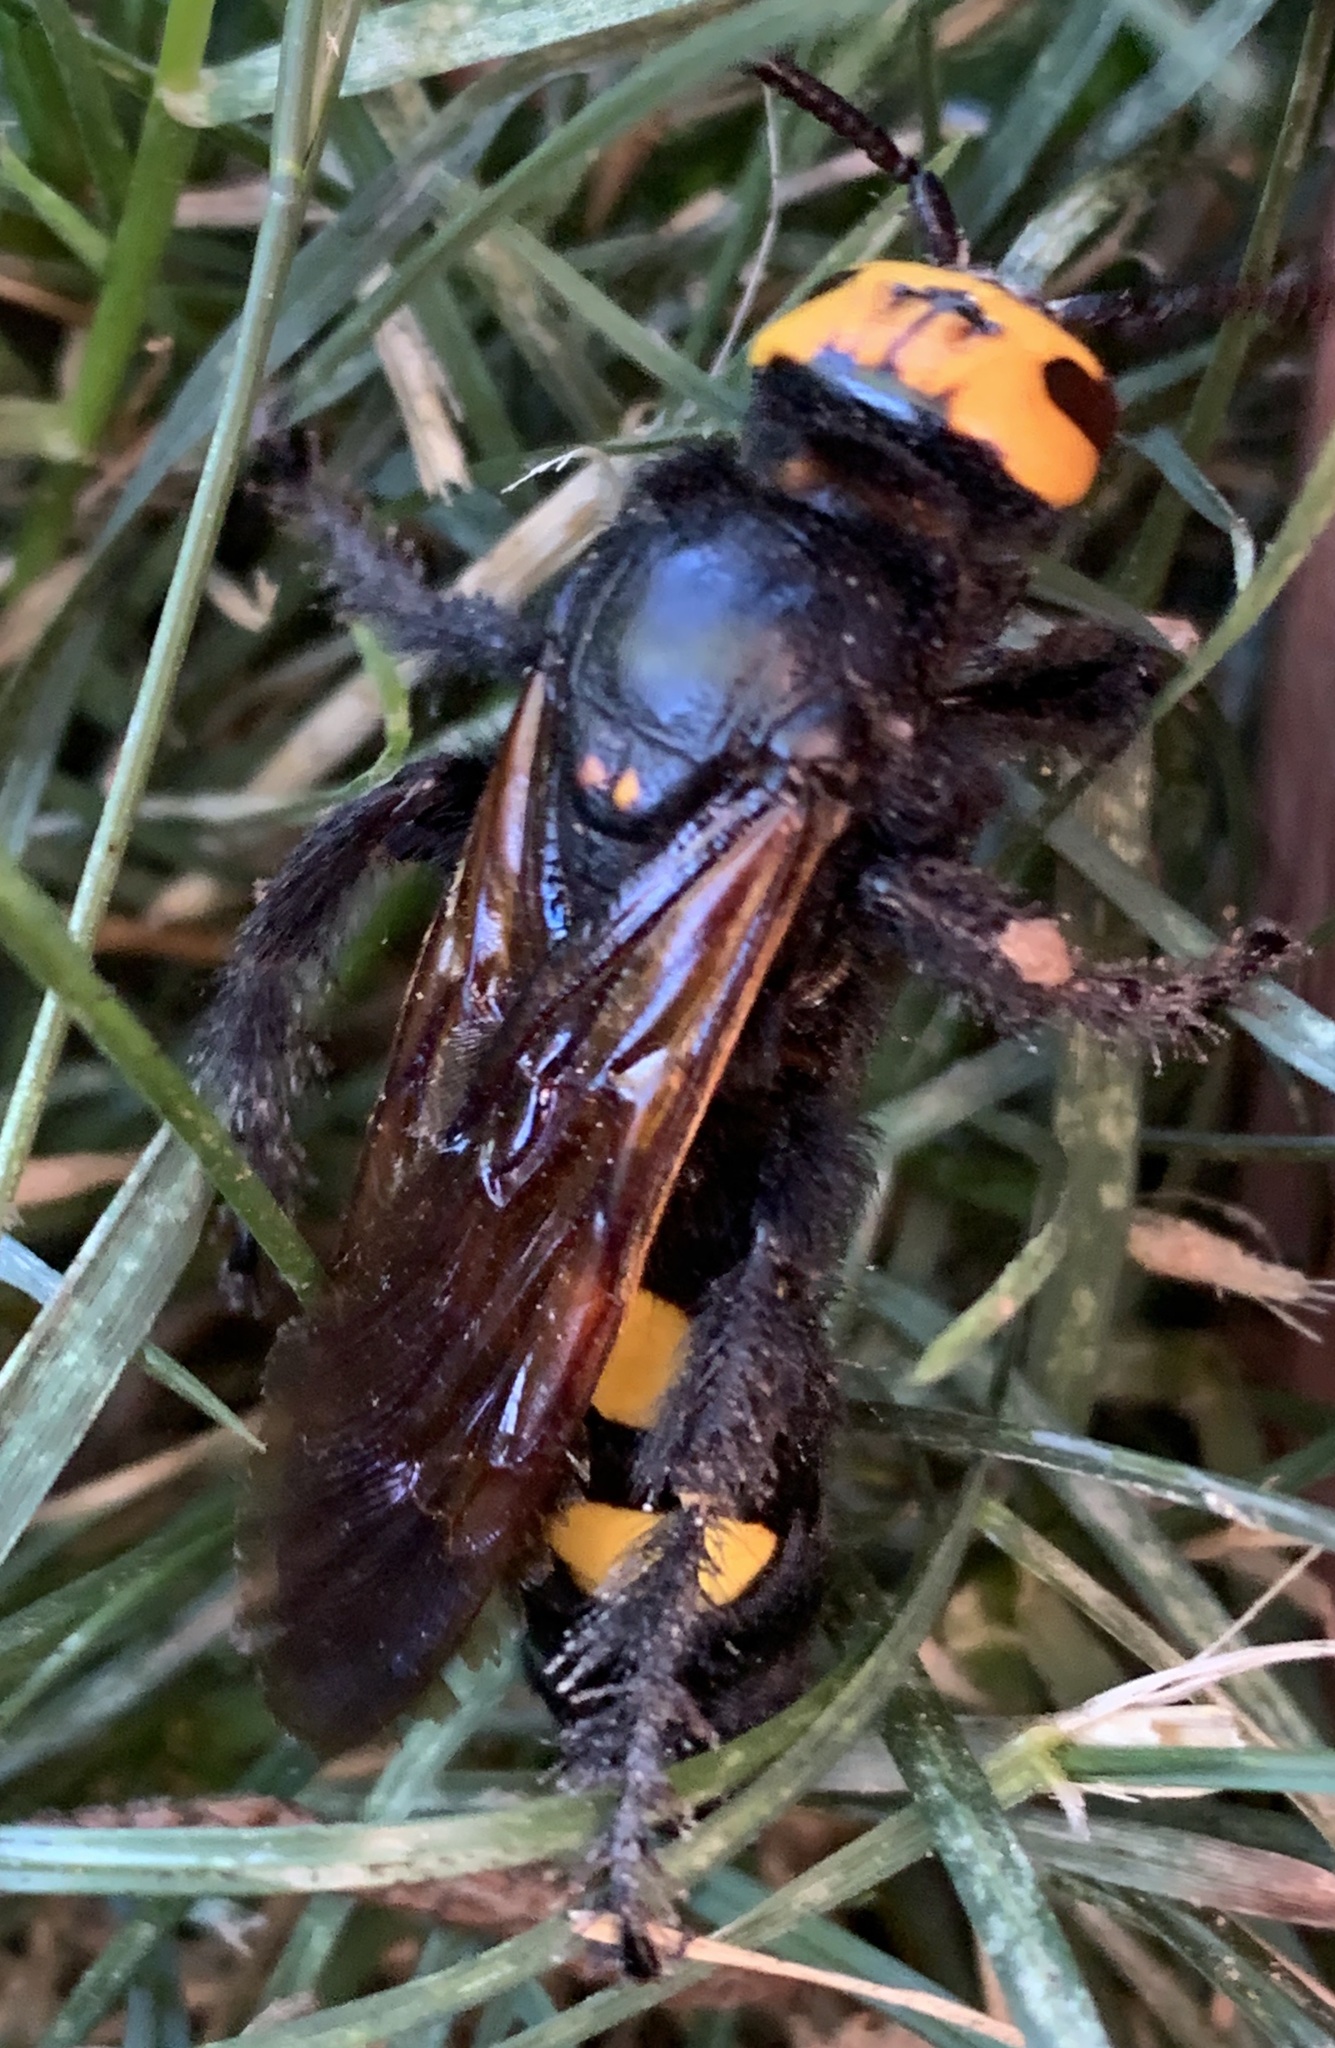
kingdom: Animalia
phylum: Arthropoda
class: Insecta
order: Hymenoptera
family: Scoliidae
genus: Megascolia
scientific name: Megascolia maculata
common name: Mammoth wasp
